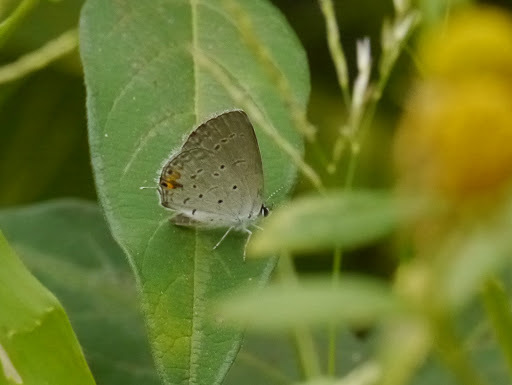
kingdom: Animalia
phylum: Arthropoda
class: Insecta
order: Lepidoptera
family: Lycaenidae
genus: Elkalyce
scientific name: Elkalyce comyntas
